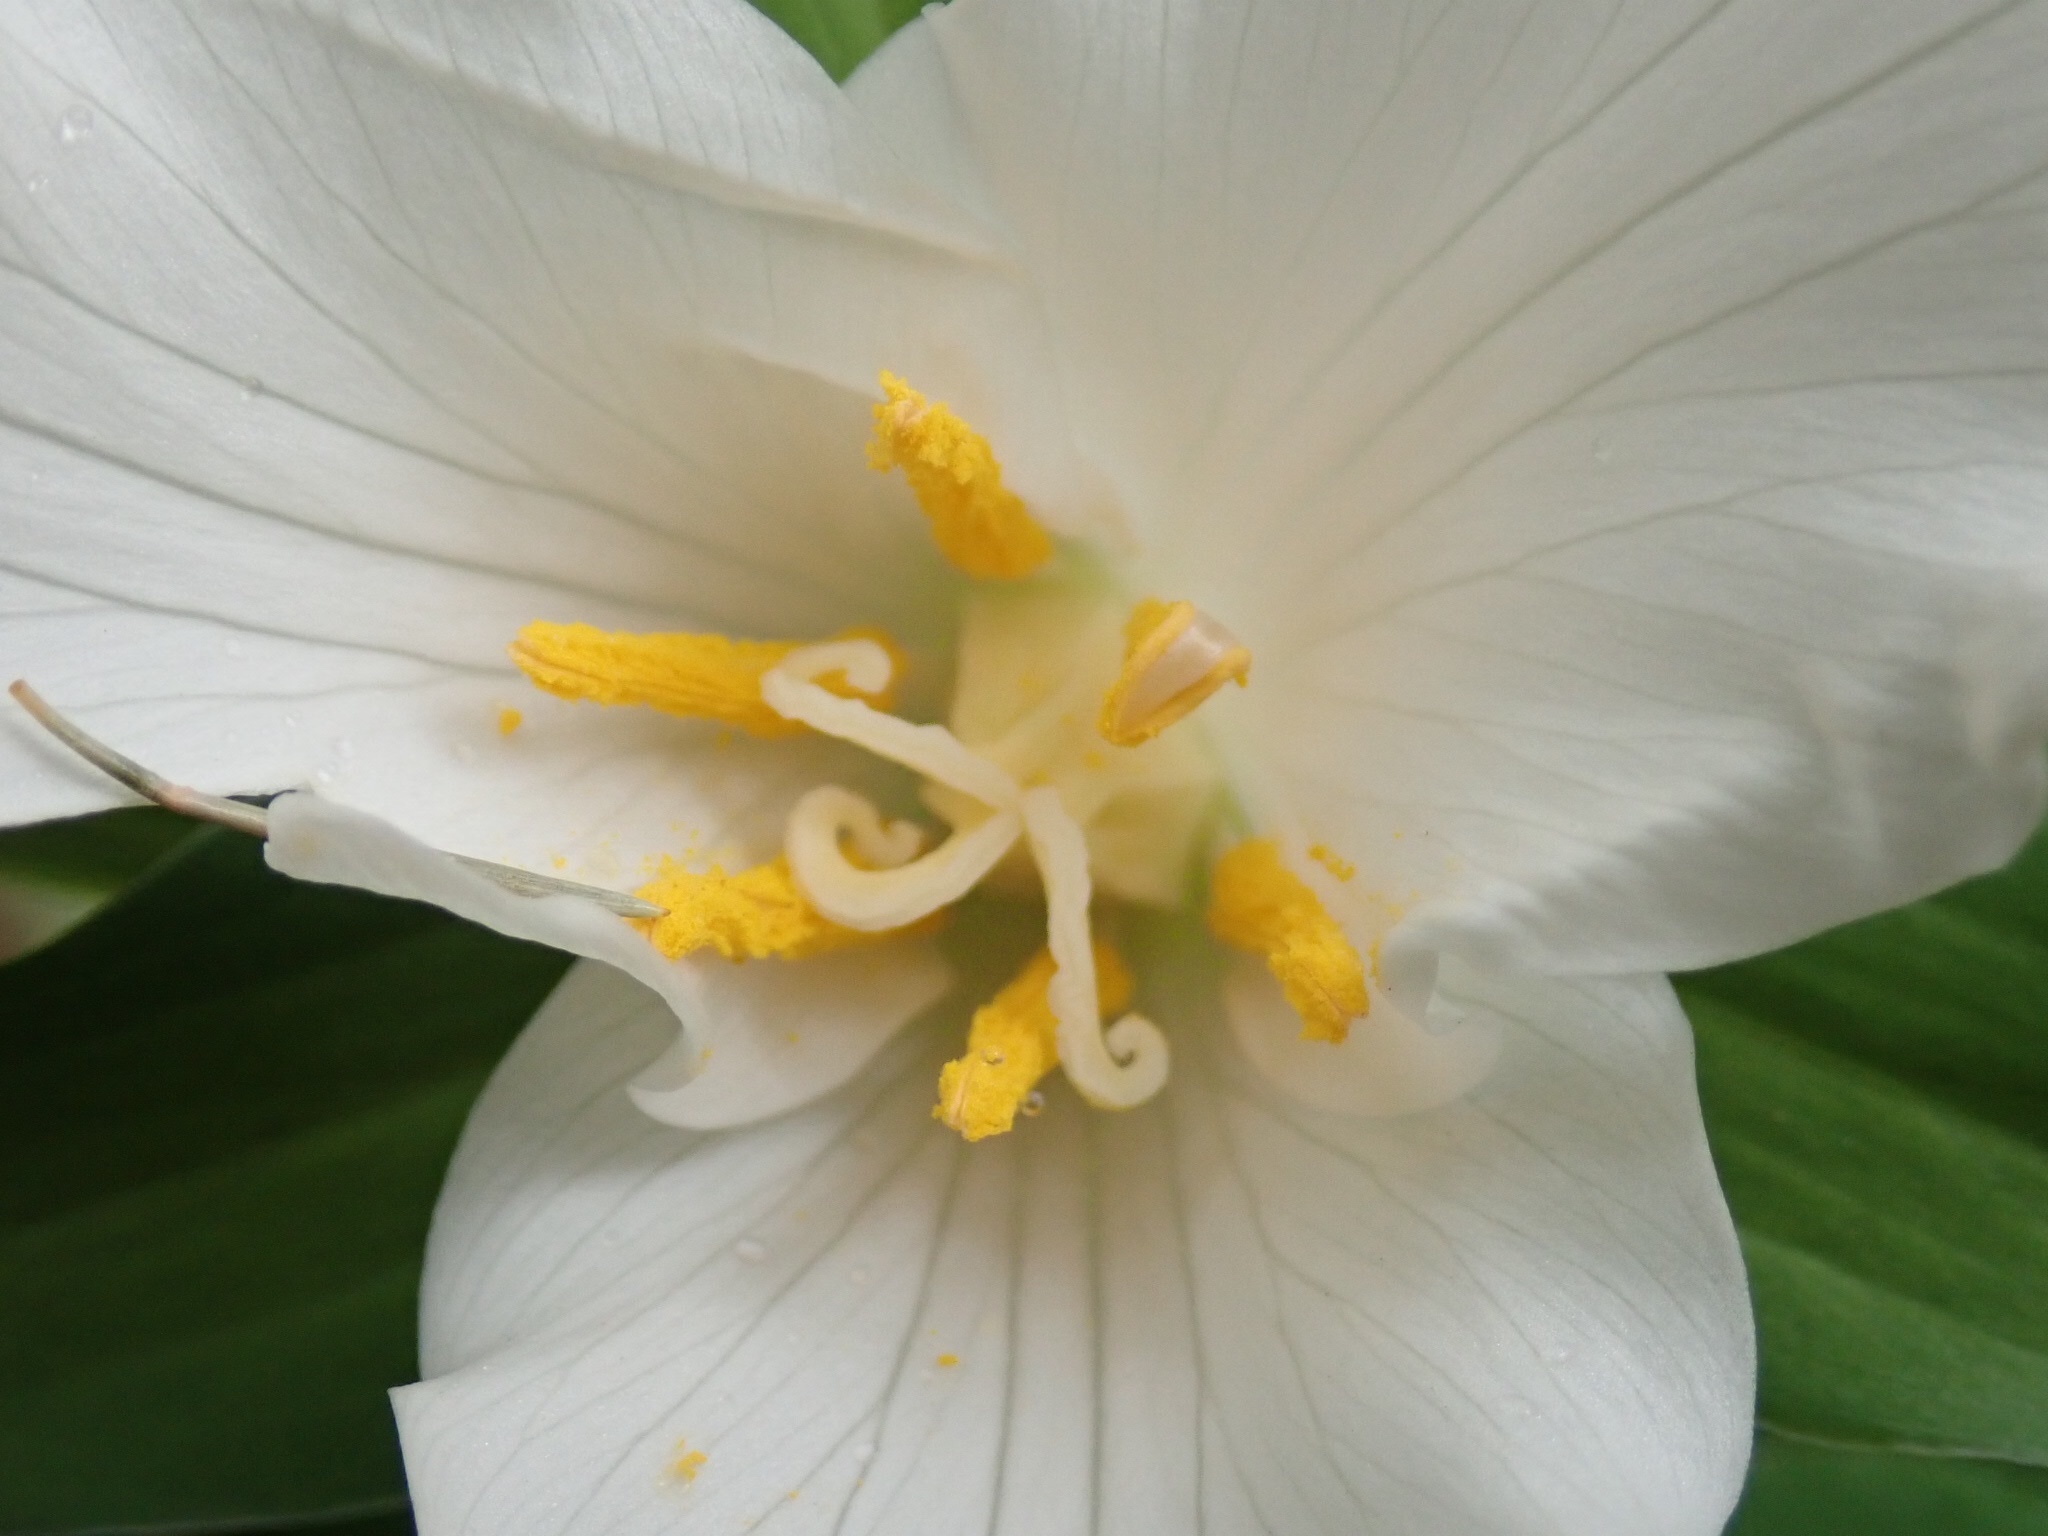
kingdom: Plantae
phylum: Tracheophyta
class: Liliopsida
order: Liliales
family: Melanthiaceae
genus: Trillium
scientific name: Trillium ovatum
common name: Pacific trillium
